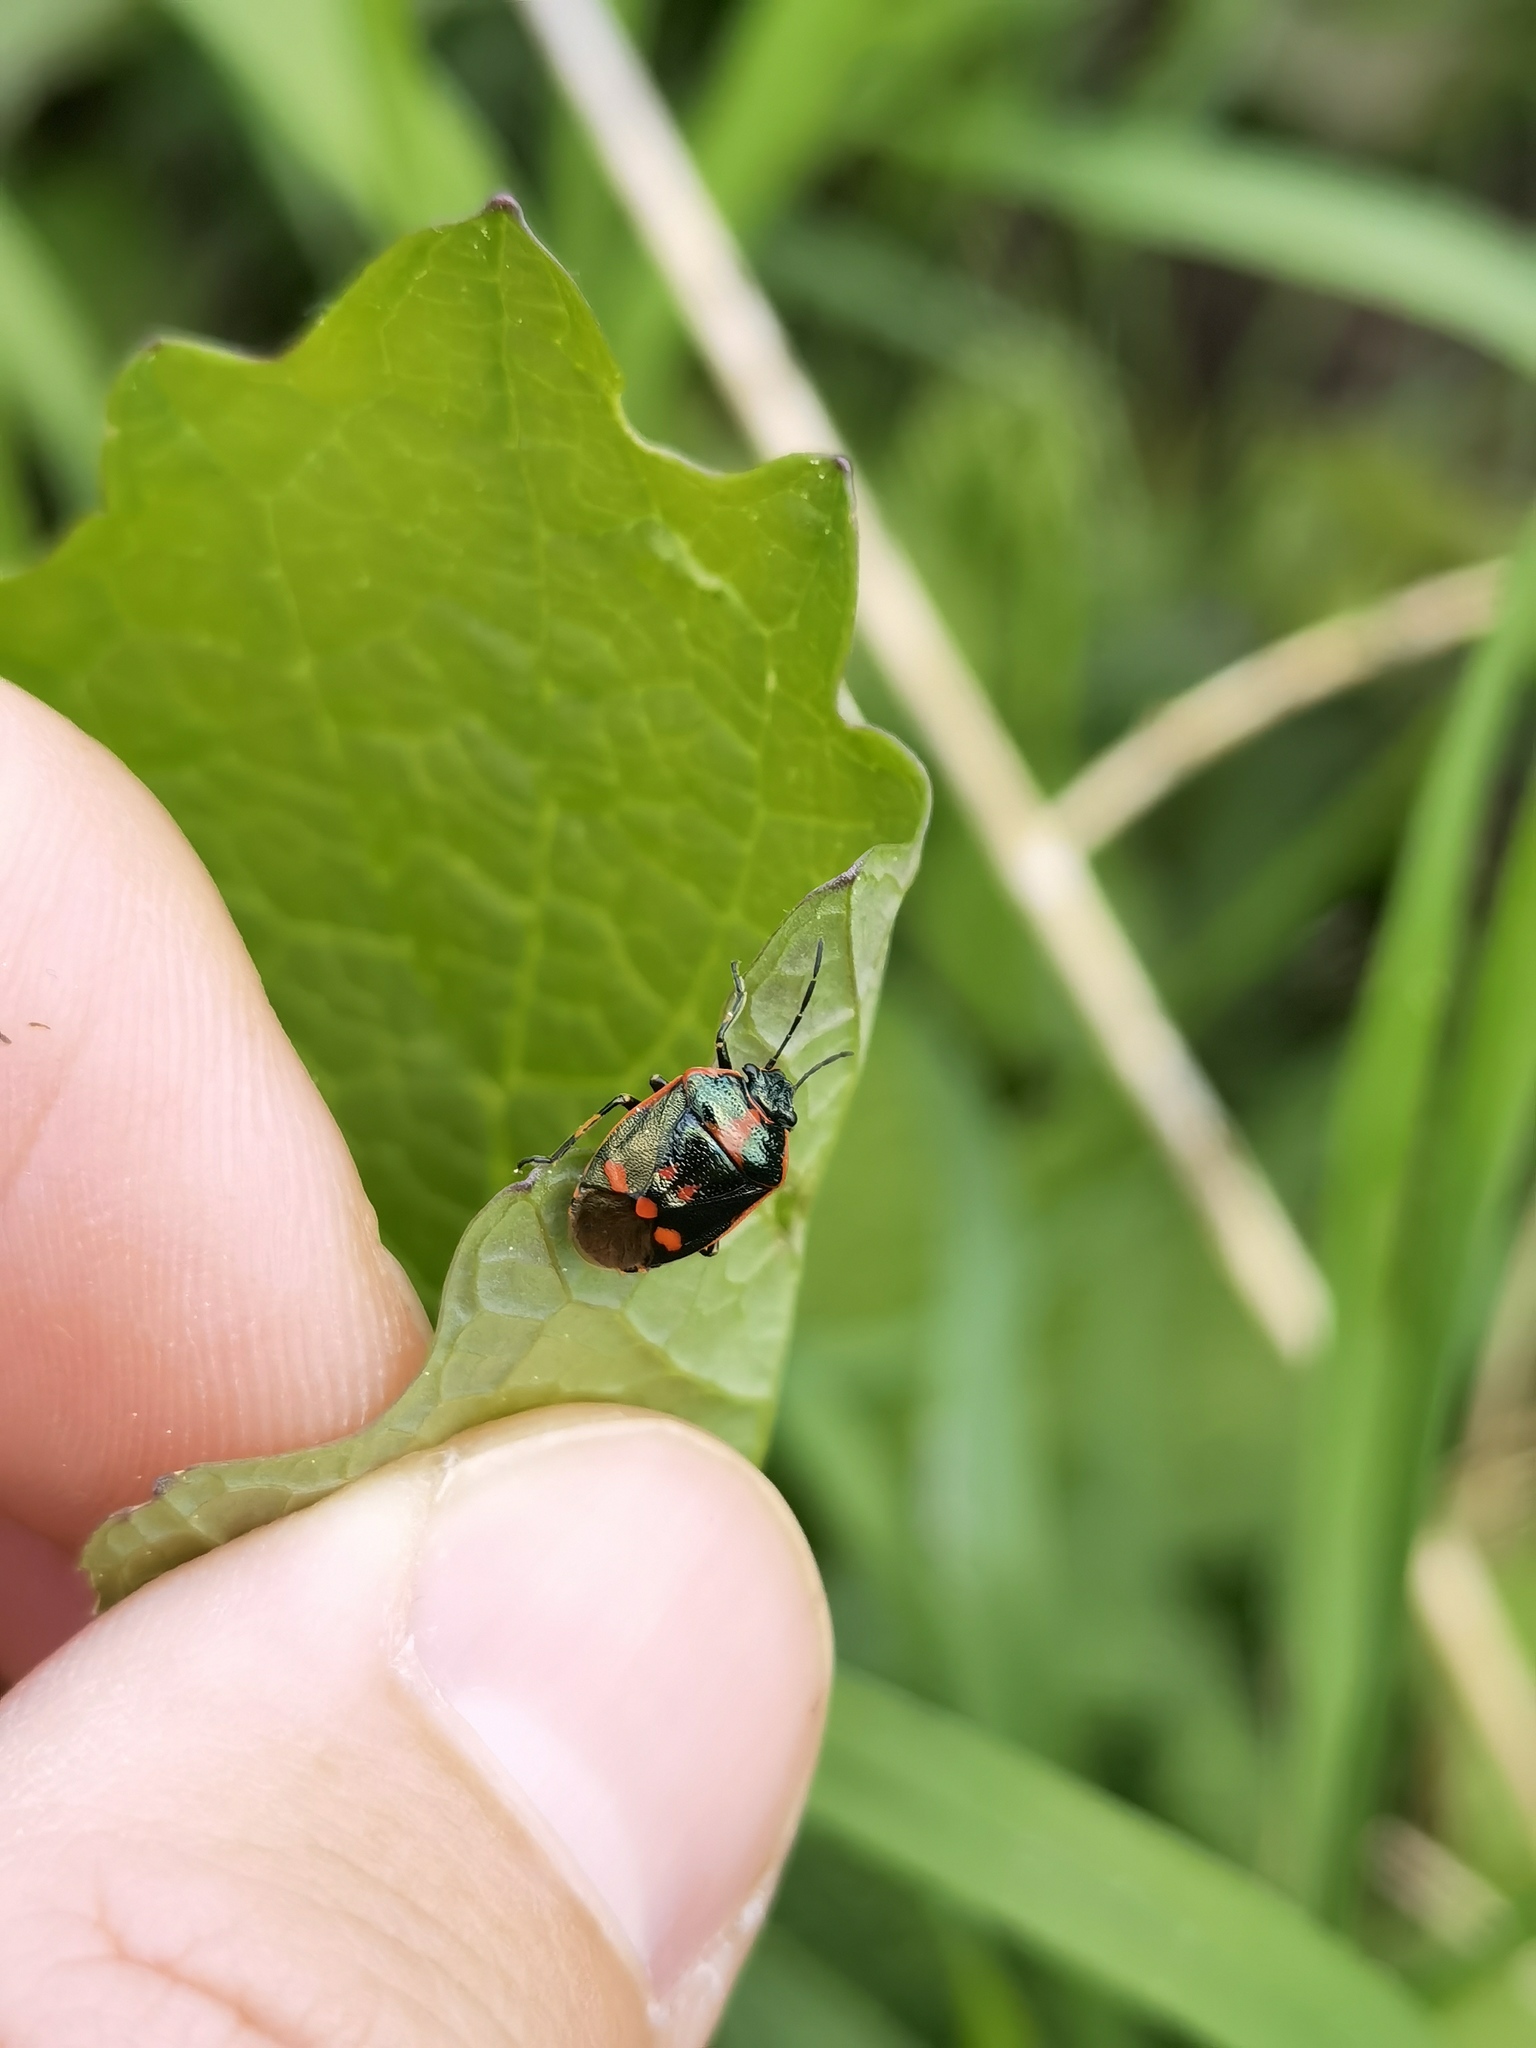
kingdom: Animalia
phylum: Arthropoda
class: Insecta
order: Hemiptera
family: Pentatomidae
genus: Eurydema
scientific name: Eurydema oleracea
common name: Cabbage bug
